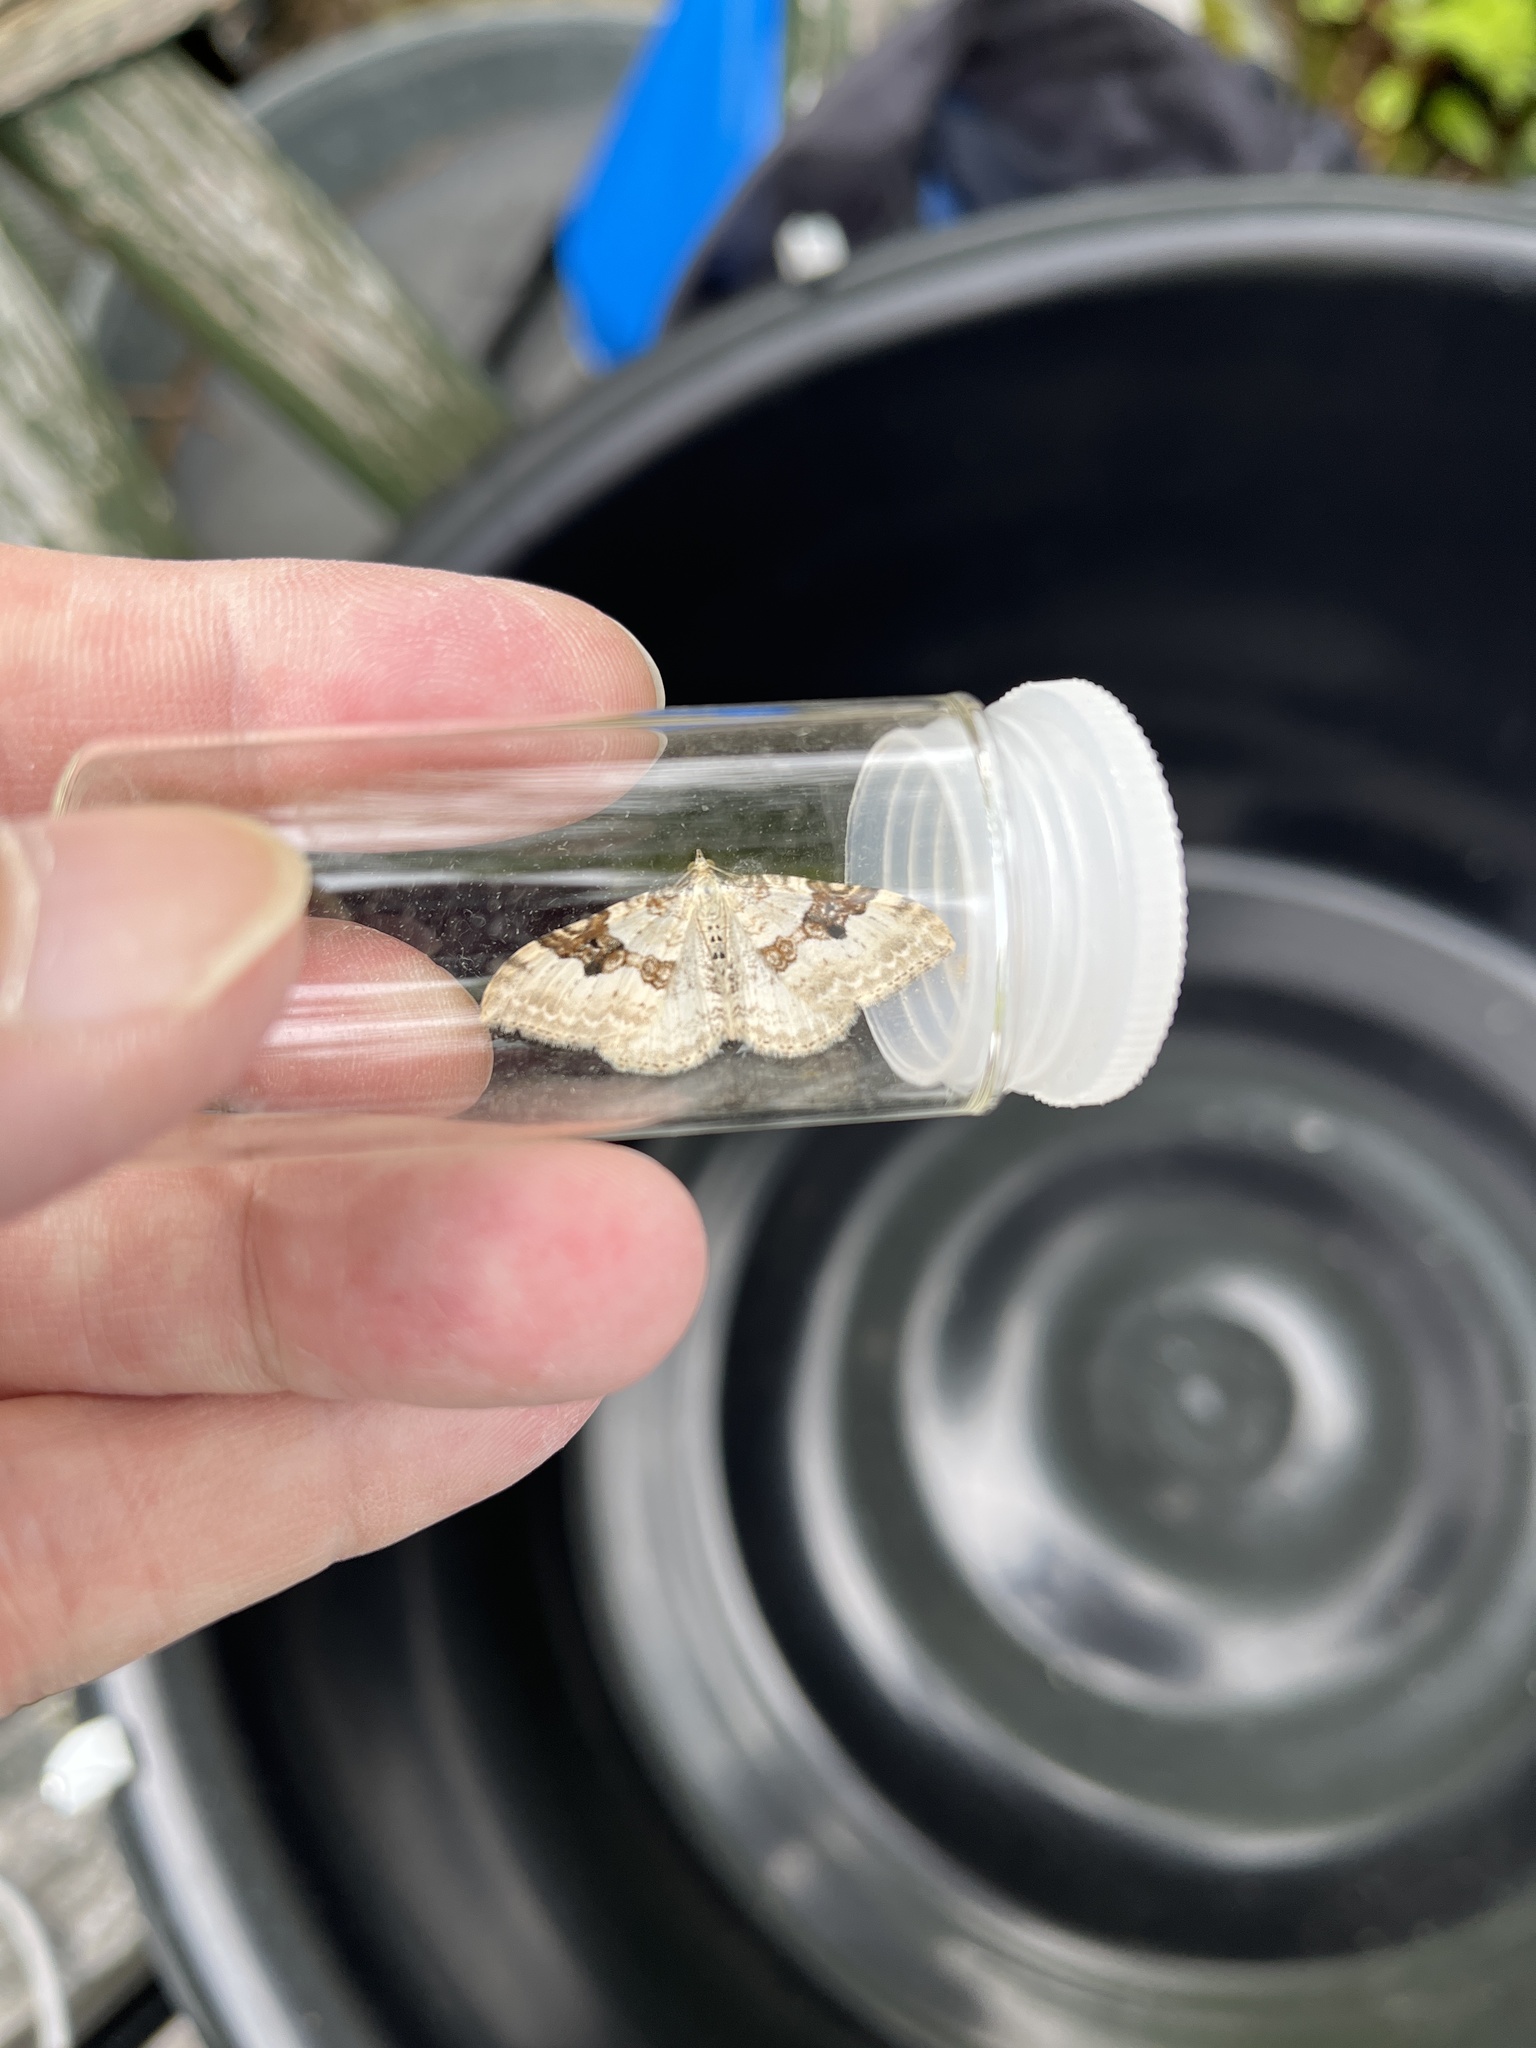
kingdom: Animalia
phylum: Arthropoda
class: Insecta
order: Lepidoptera
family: Geometridae
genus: Xanthorhoe
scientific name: Xanthorhoe montanata
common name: Silver-ground carpet
